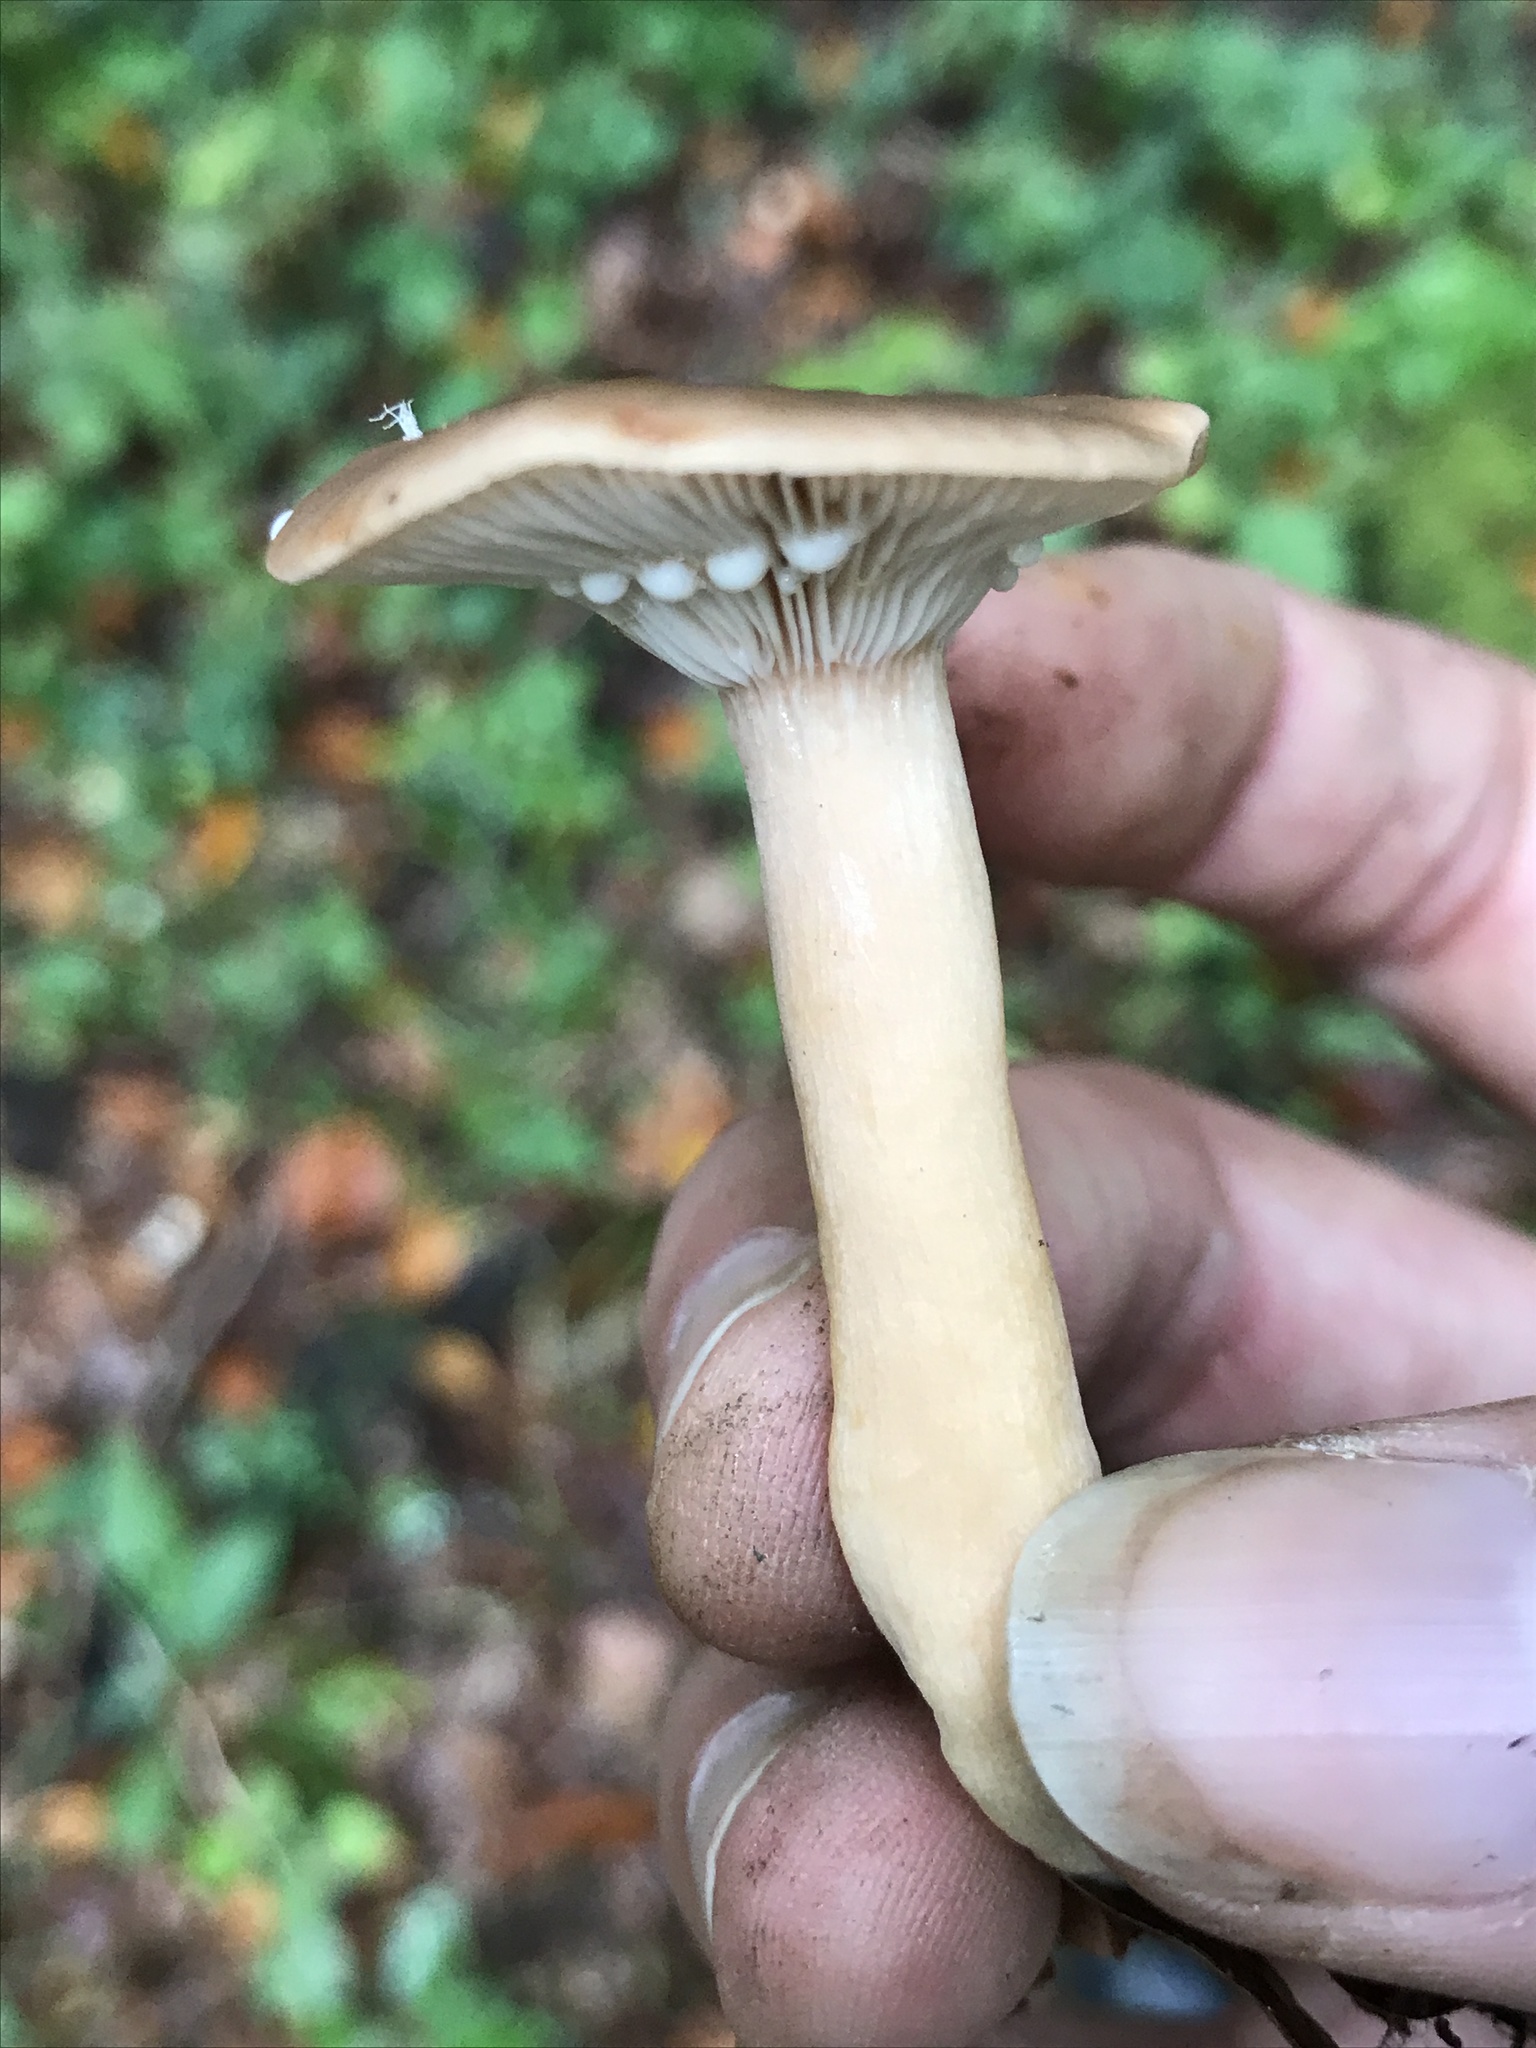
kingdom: Fungi
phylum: Basidiomycota
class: Agaricomycetes
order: Russulales
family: Russulaceae
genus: Lactarius
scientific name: Lactarius subdulcis
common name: Mild milkcap
